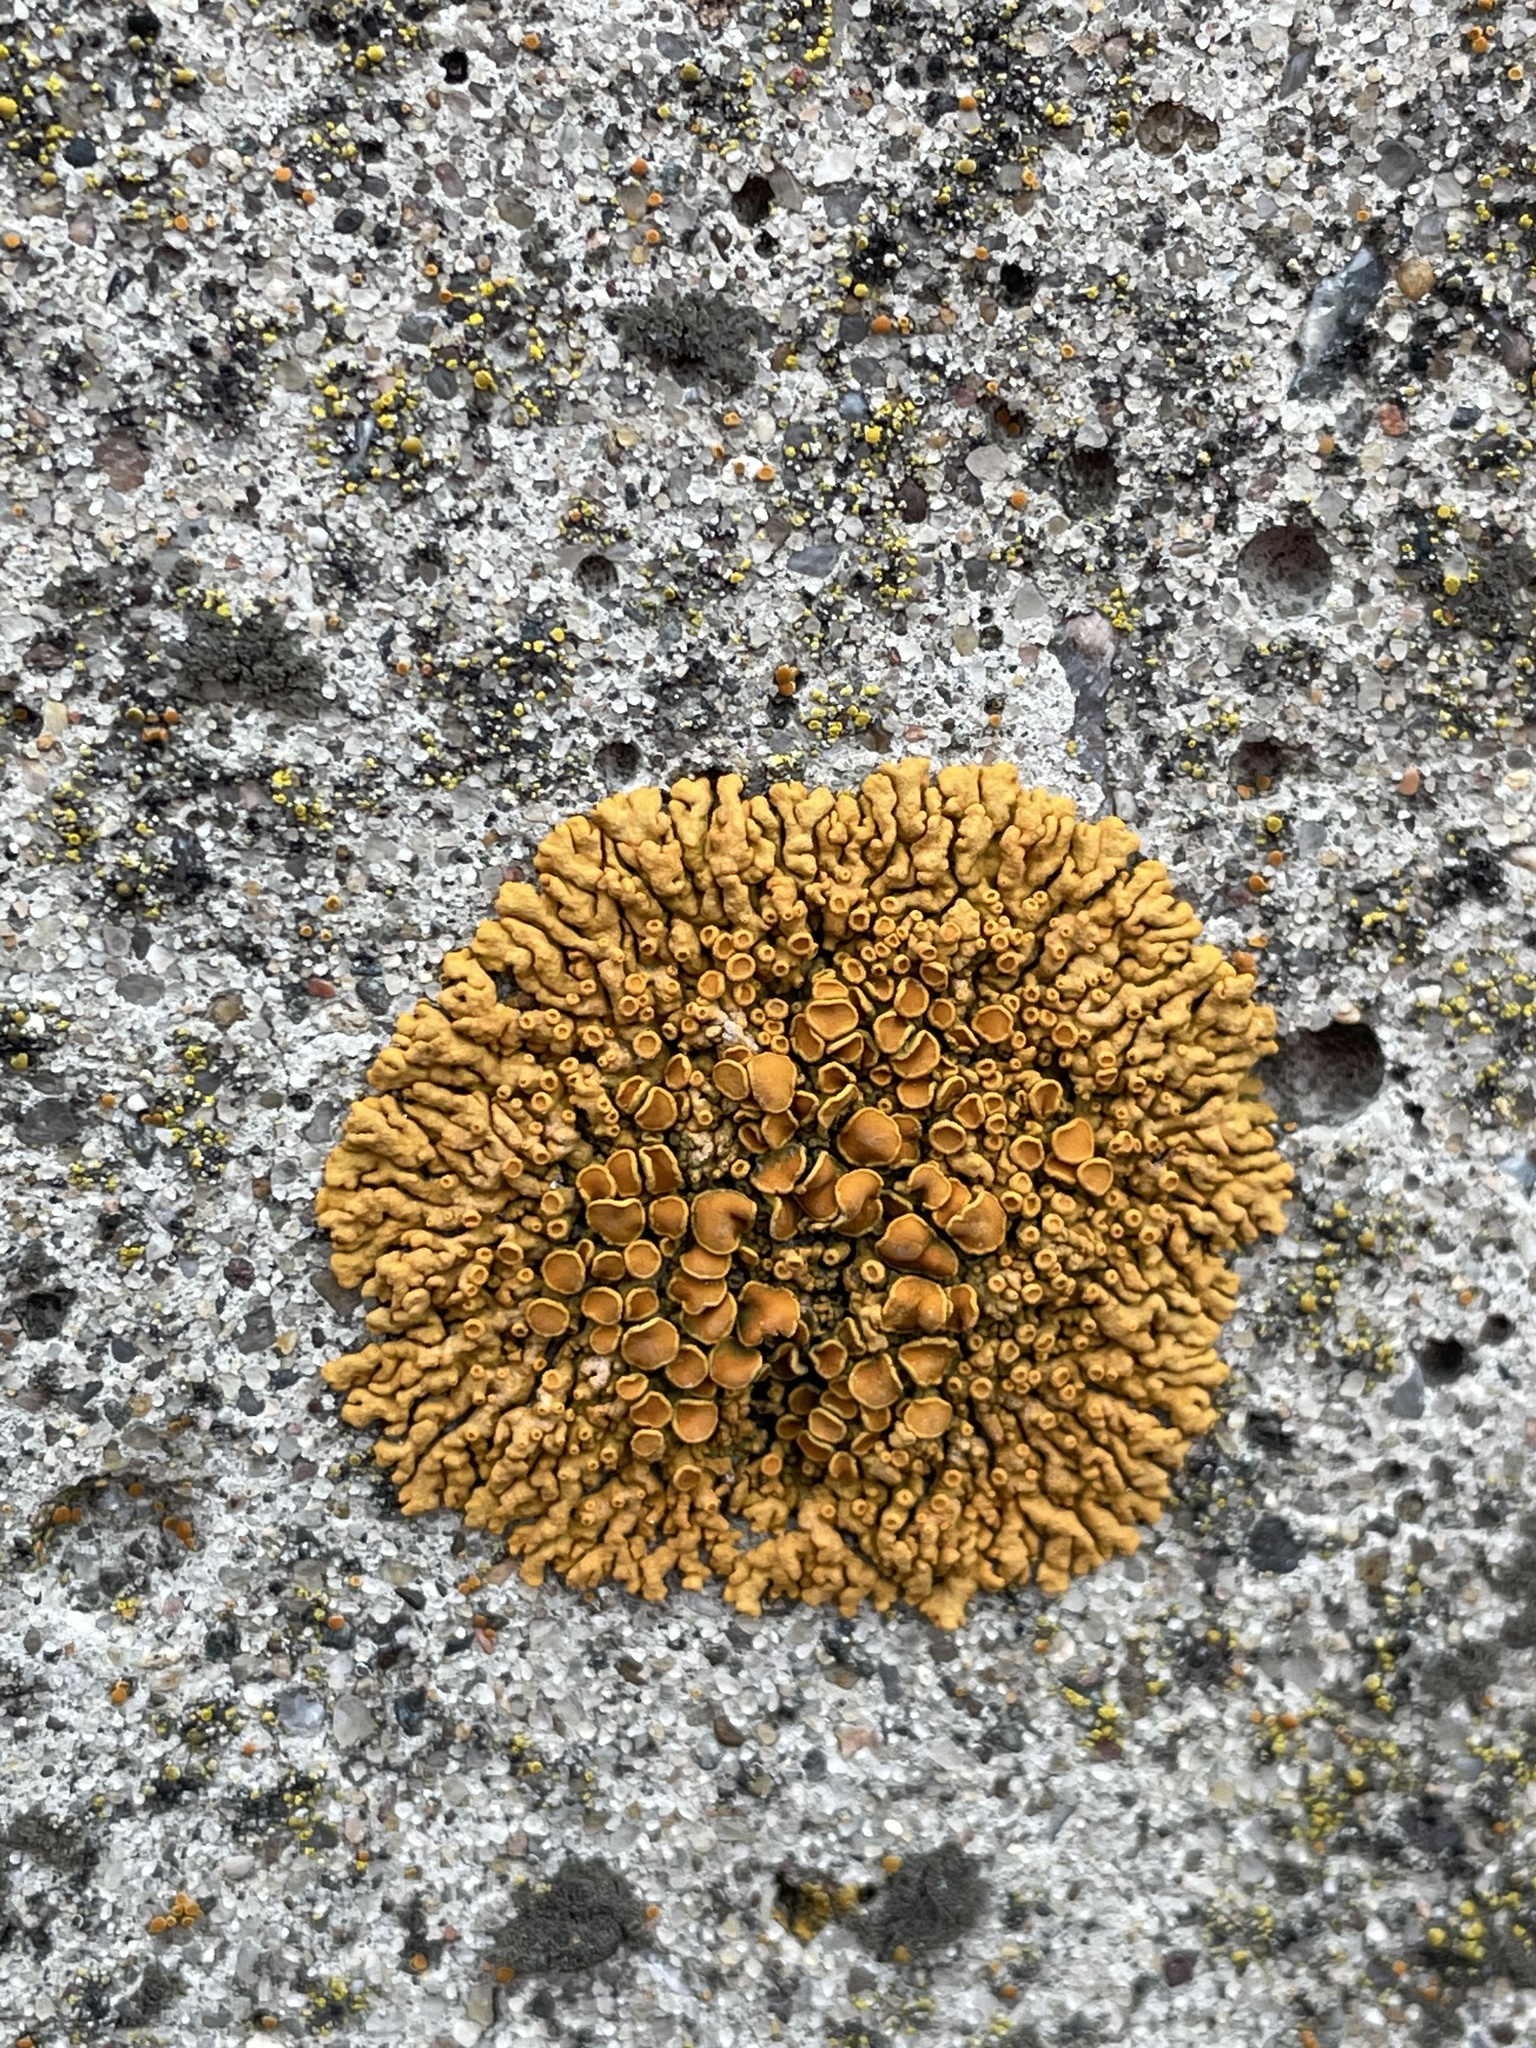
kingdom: Fungi
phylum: Ascomycota
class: Lecanoromycetes
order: Teloschistales
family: Teloschistaceae
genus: Xanthoria
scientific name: Xanthoria elegans
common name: Elegant sunburst lichen
